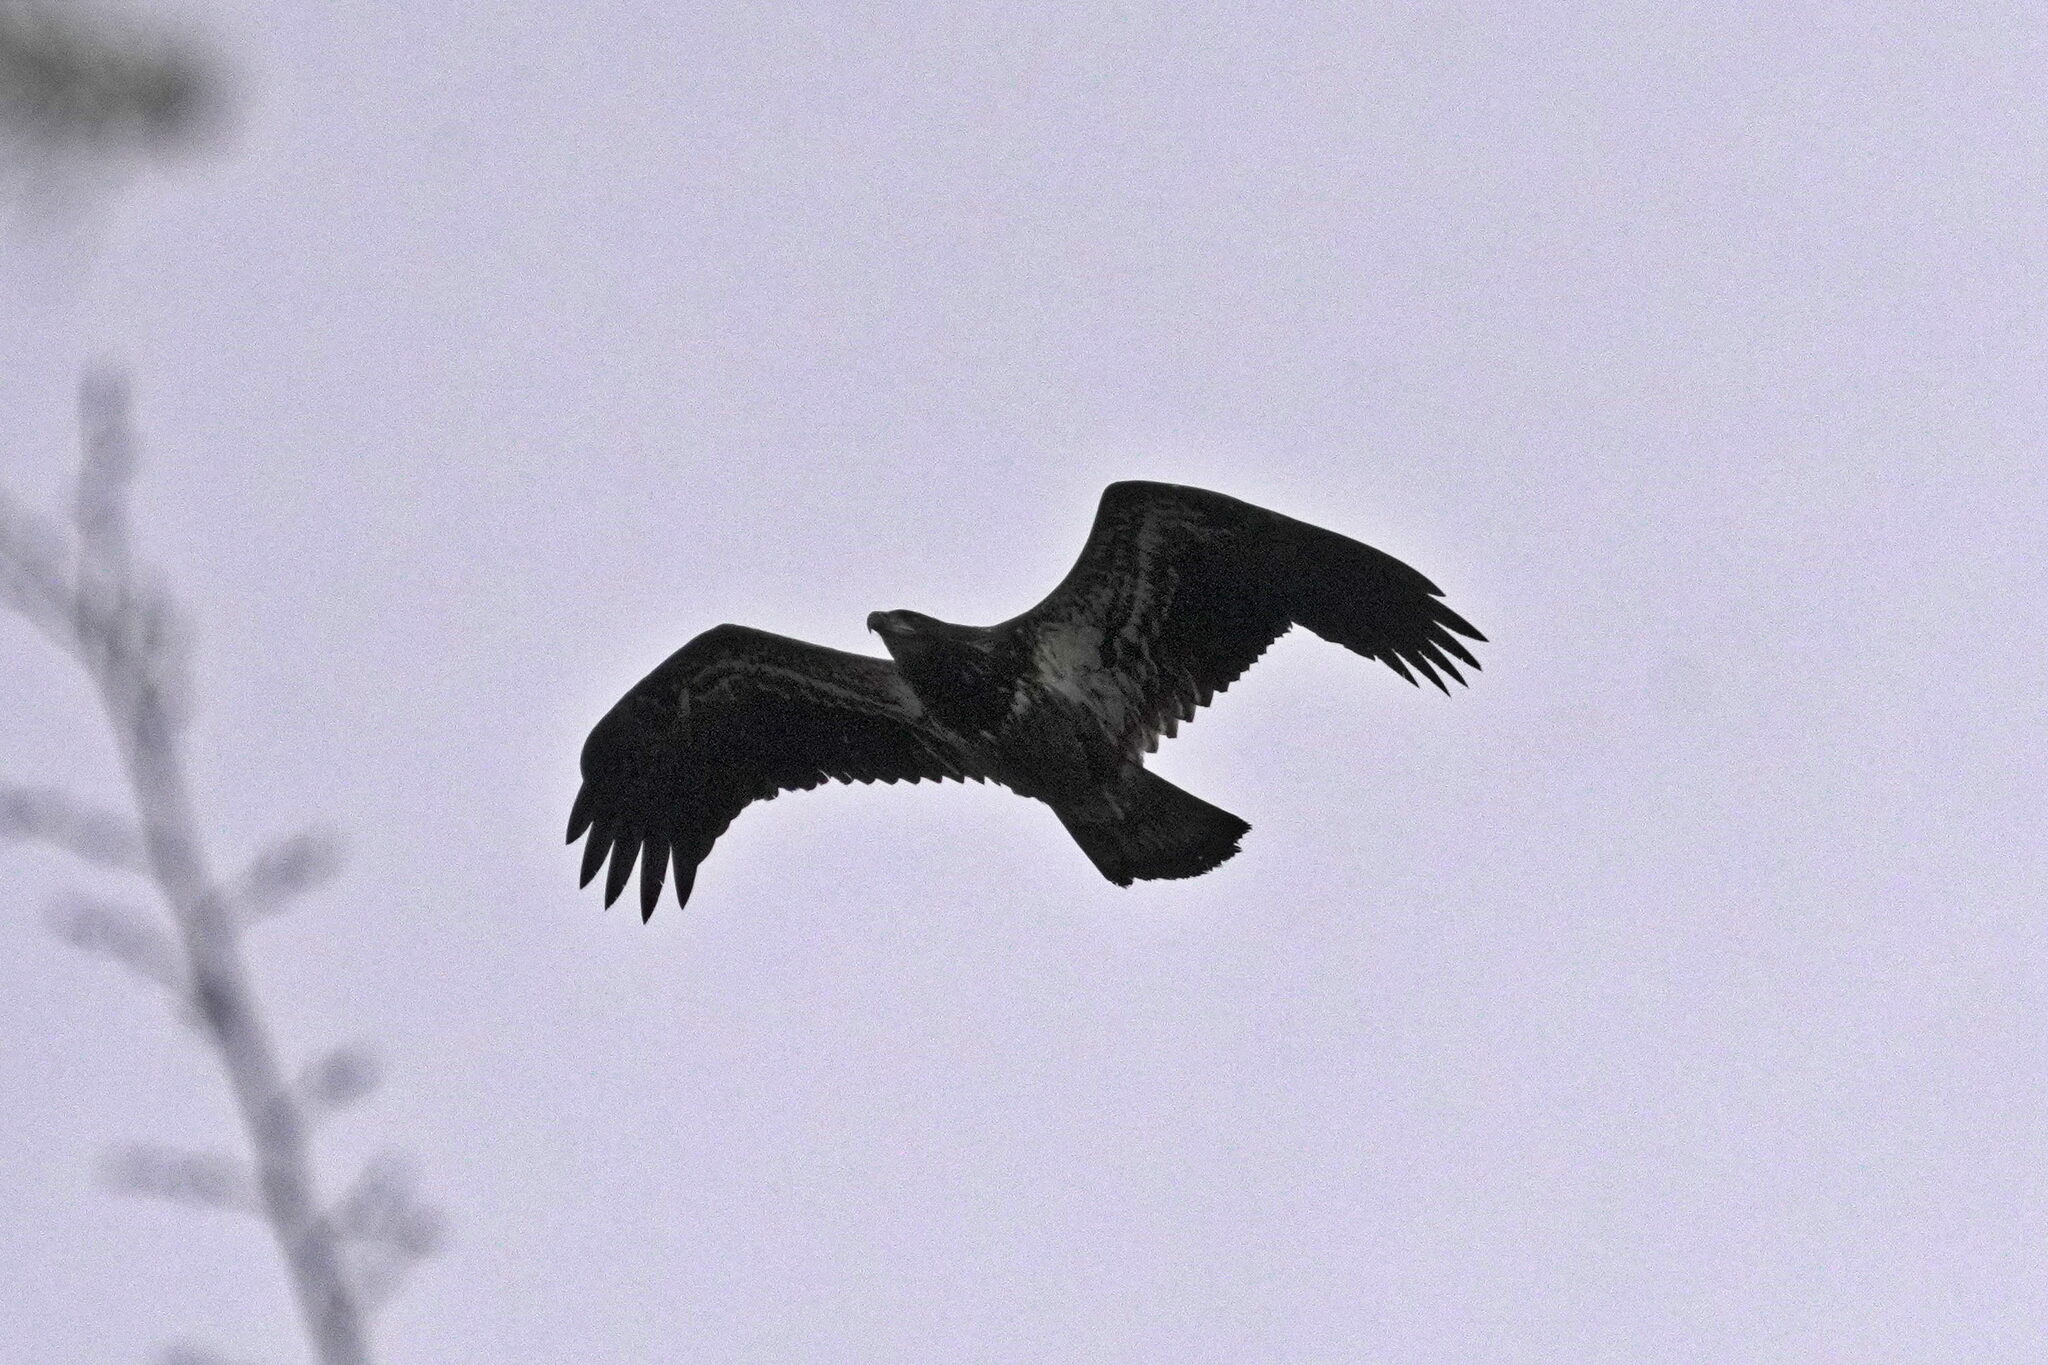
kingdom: Animalia
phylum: Chordata
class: Aves
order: Accipitriformes
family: Accipitridae
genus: Haliaeetus
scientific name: Haliaeetus leucocephalus
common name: Bald eagle
